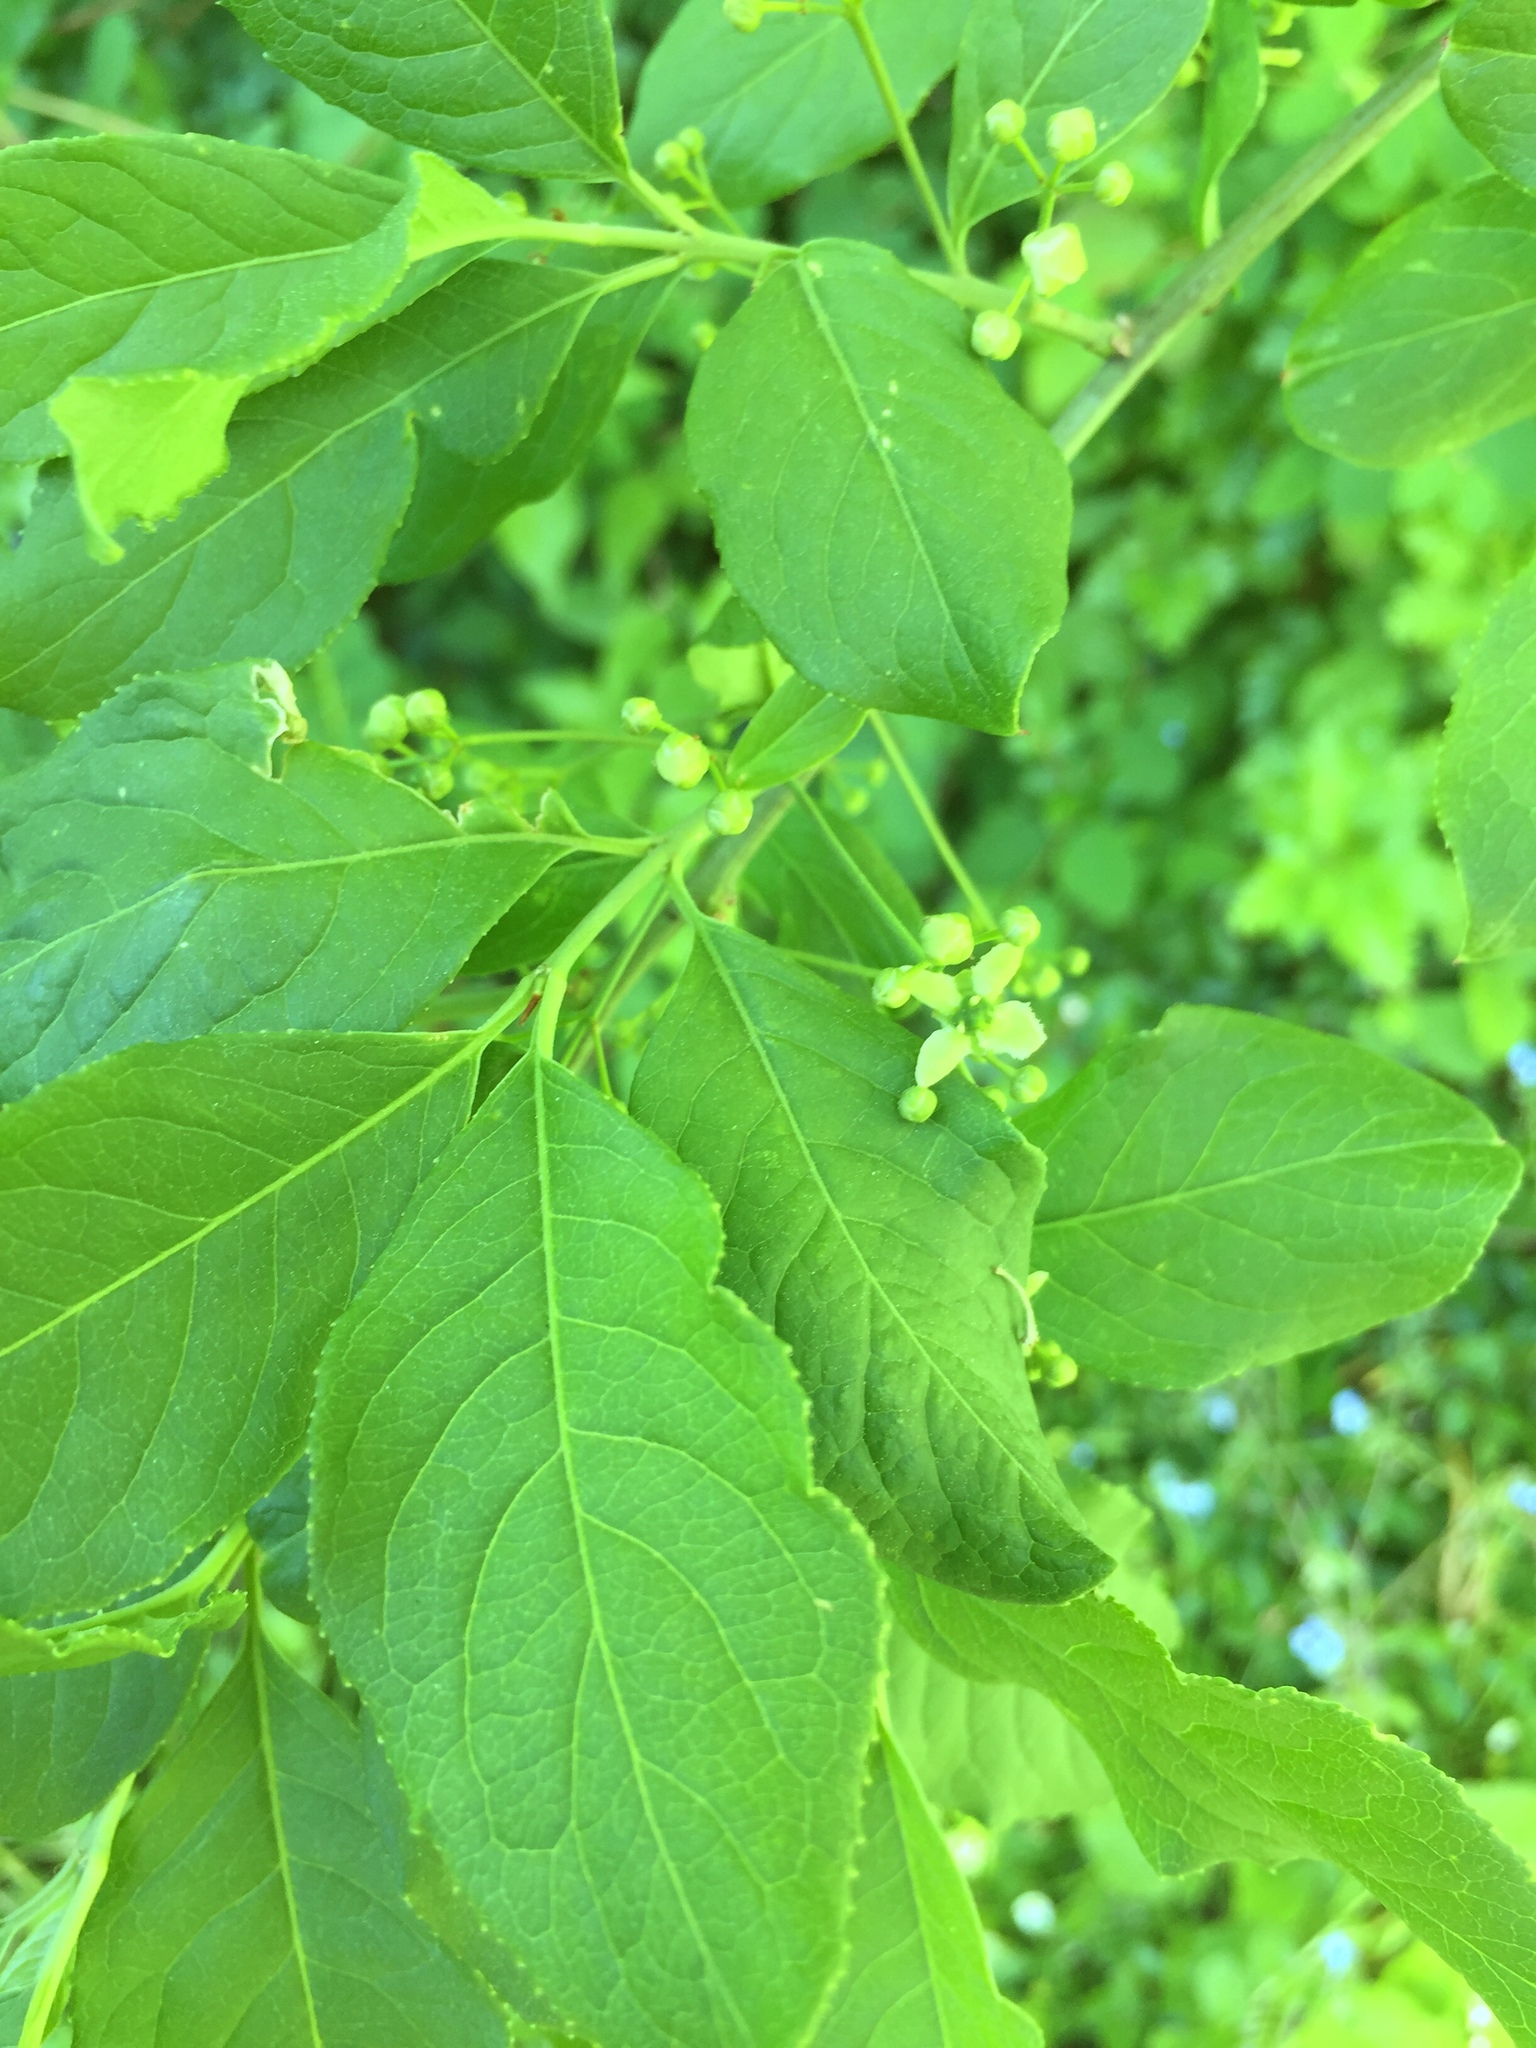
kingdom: Plantae
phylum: Tracheophyta
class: Magnoliopsida
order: Celastrales
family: Celastraceae
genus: Euonymus
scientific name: Euonymus europaeus
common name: Spindle
